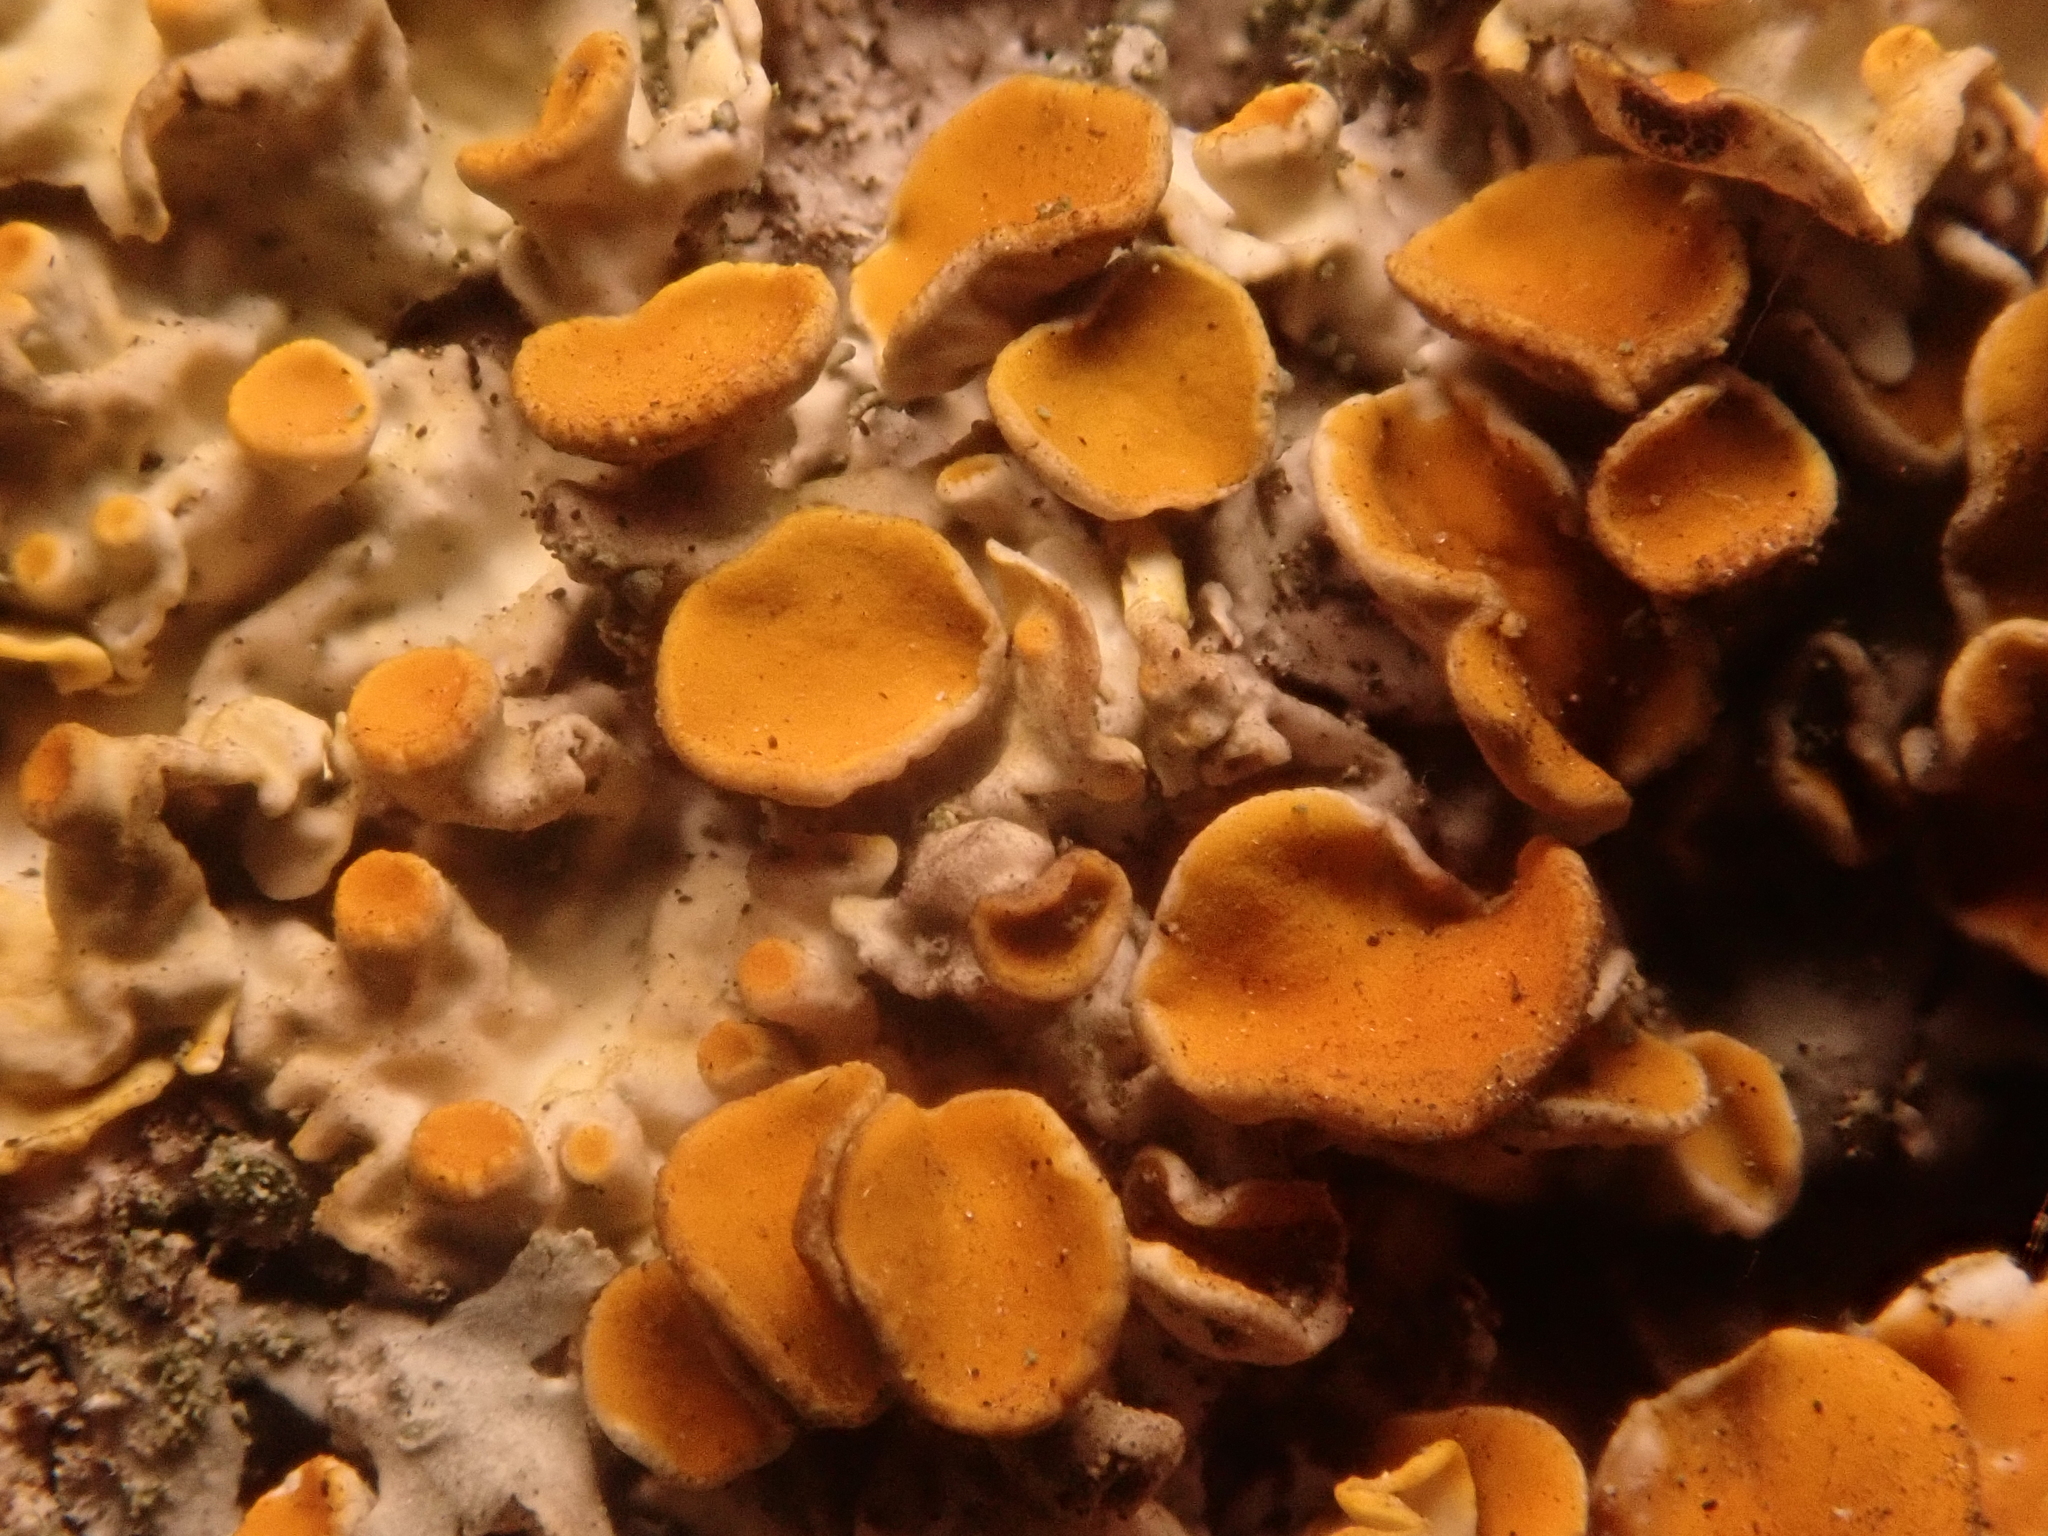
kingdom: Fungi
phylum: Ascomycota
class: Lecanoromycetes
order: Teloschistales
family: Teloschistaceae
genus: Xanthoria
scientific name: Xanthoria parietina
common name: Common orange lichen
